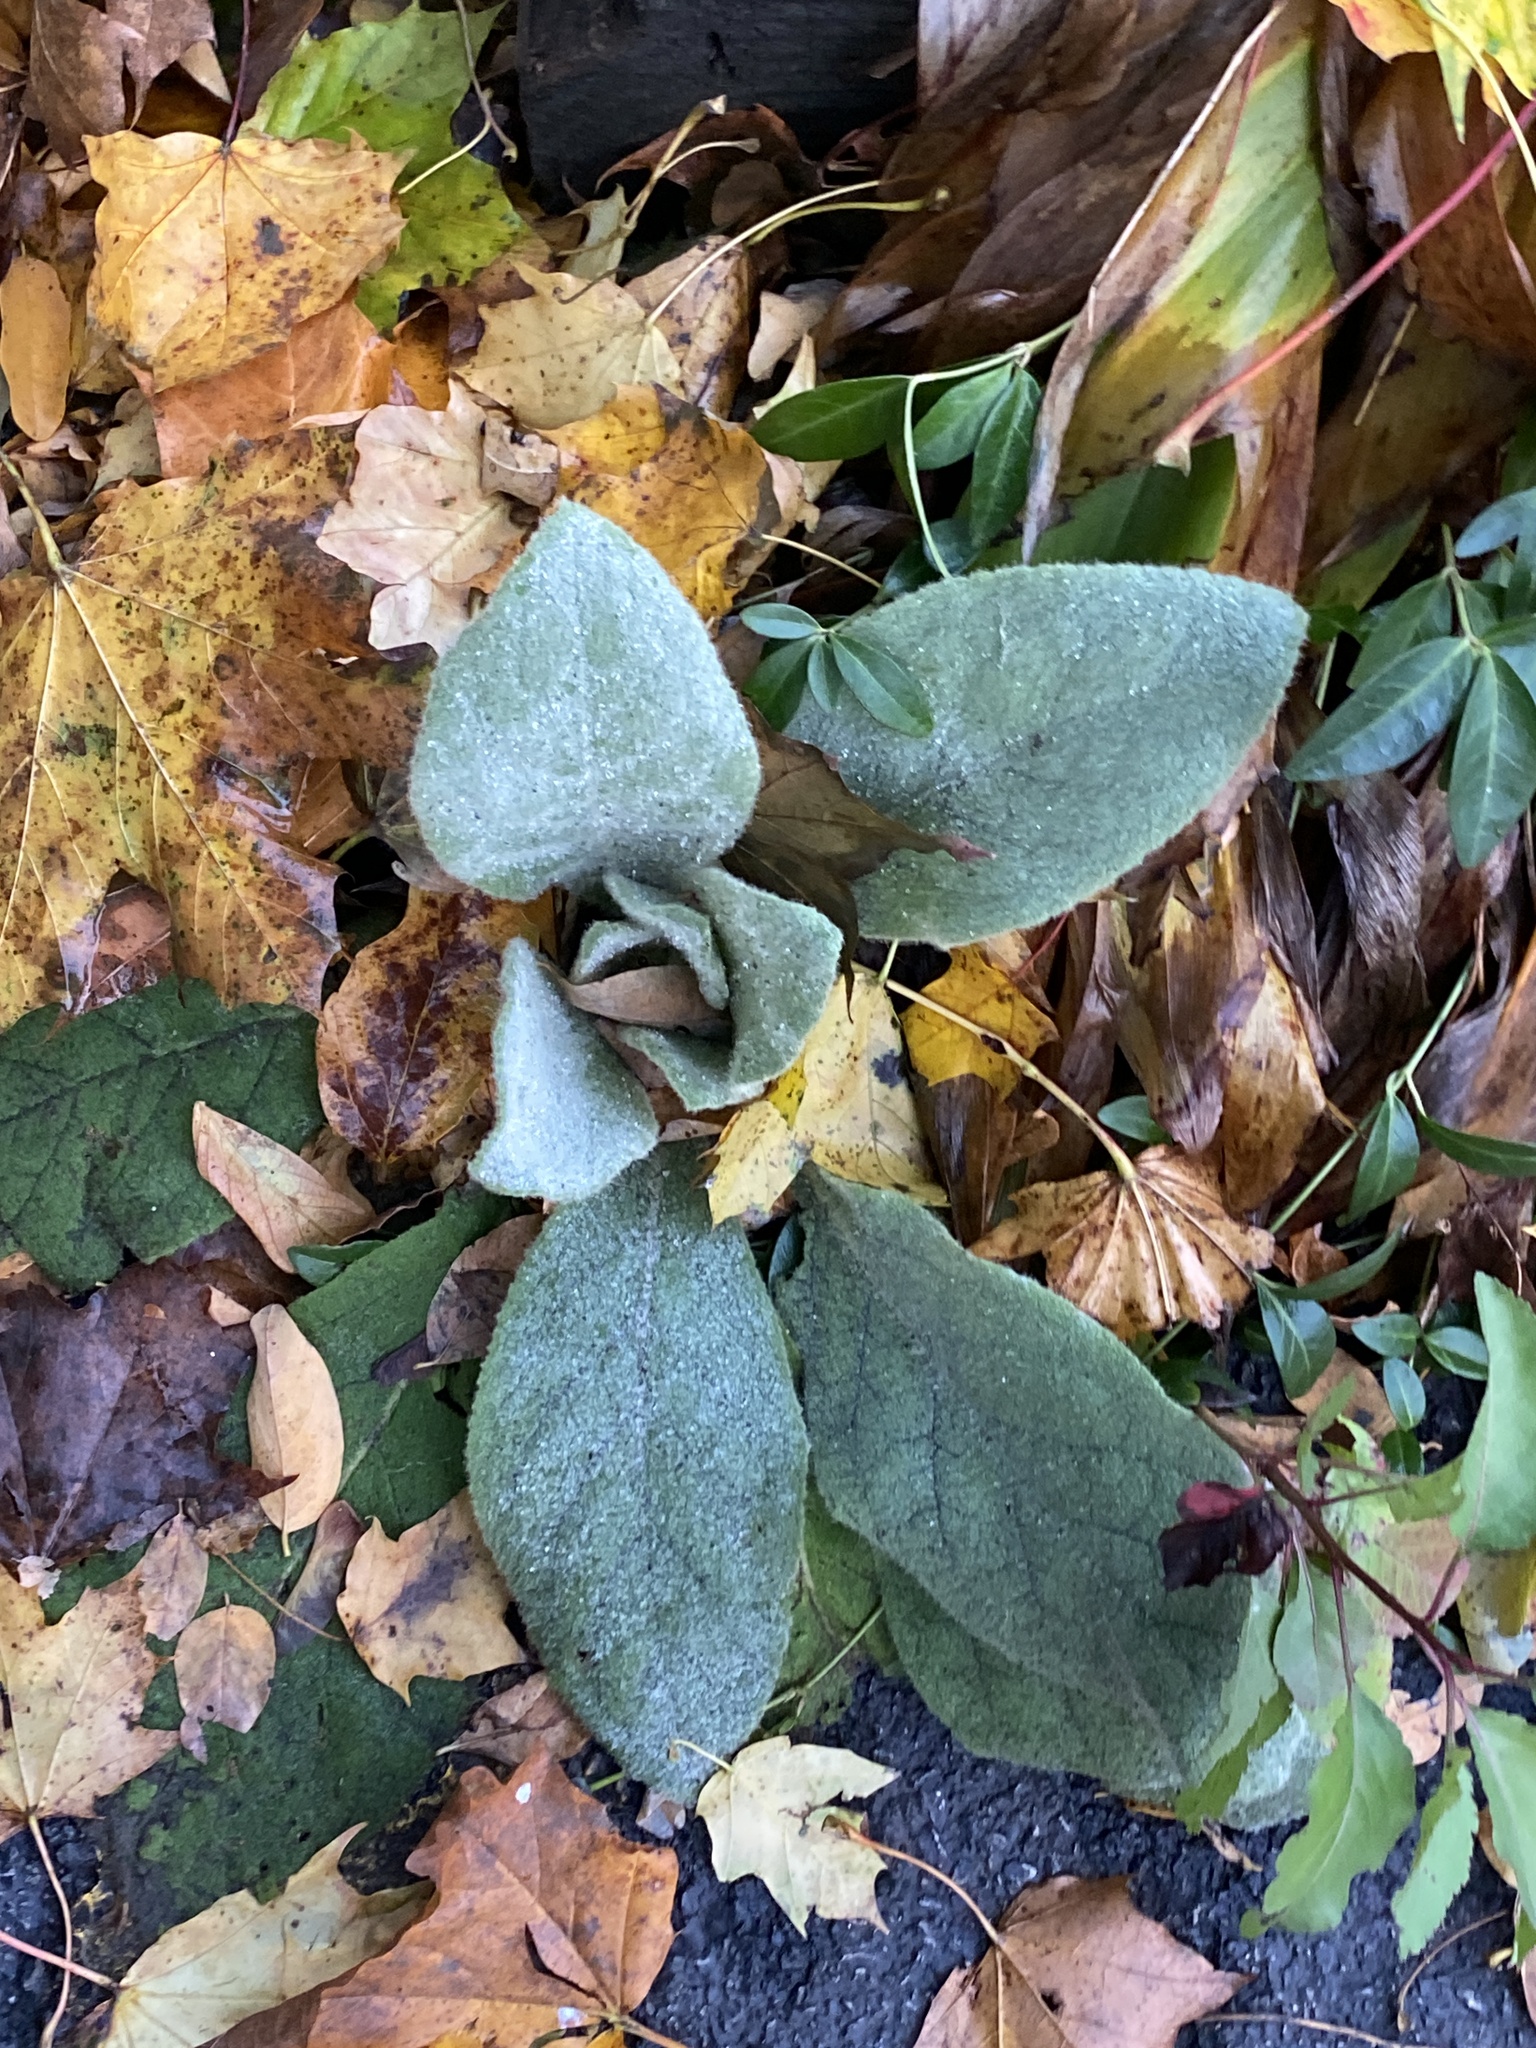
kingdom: Plantae
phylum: Tracheophyta
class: Magnoliopsida
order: Lamiales
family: Scrophulariaceae
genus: Verbascum
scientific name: Verbascum thapsus
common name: Common mullein
